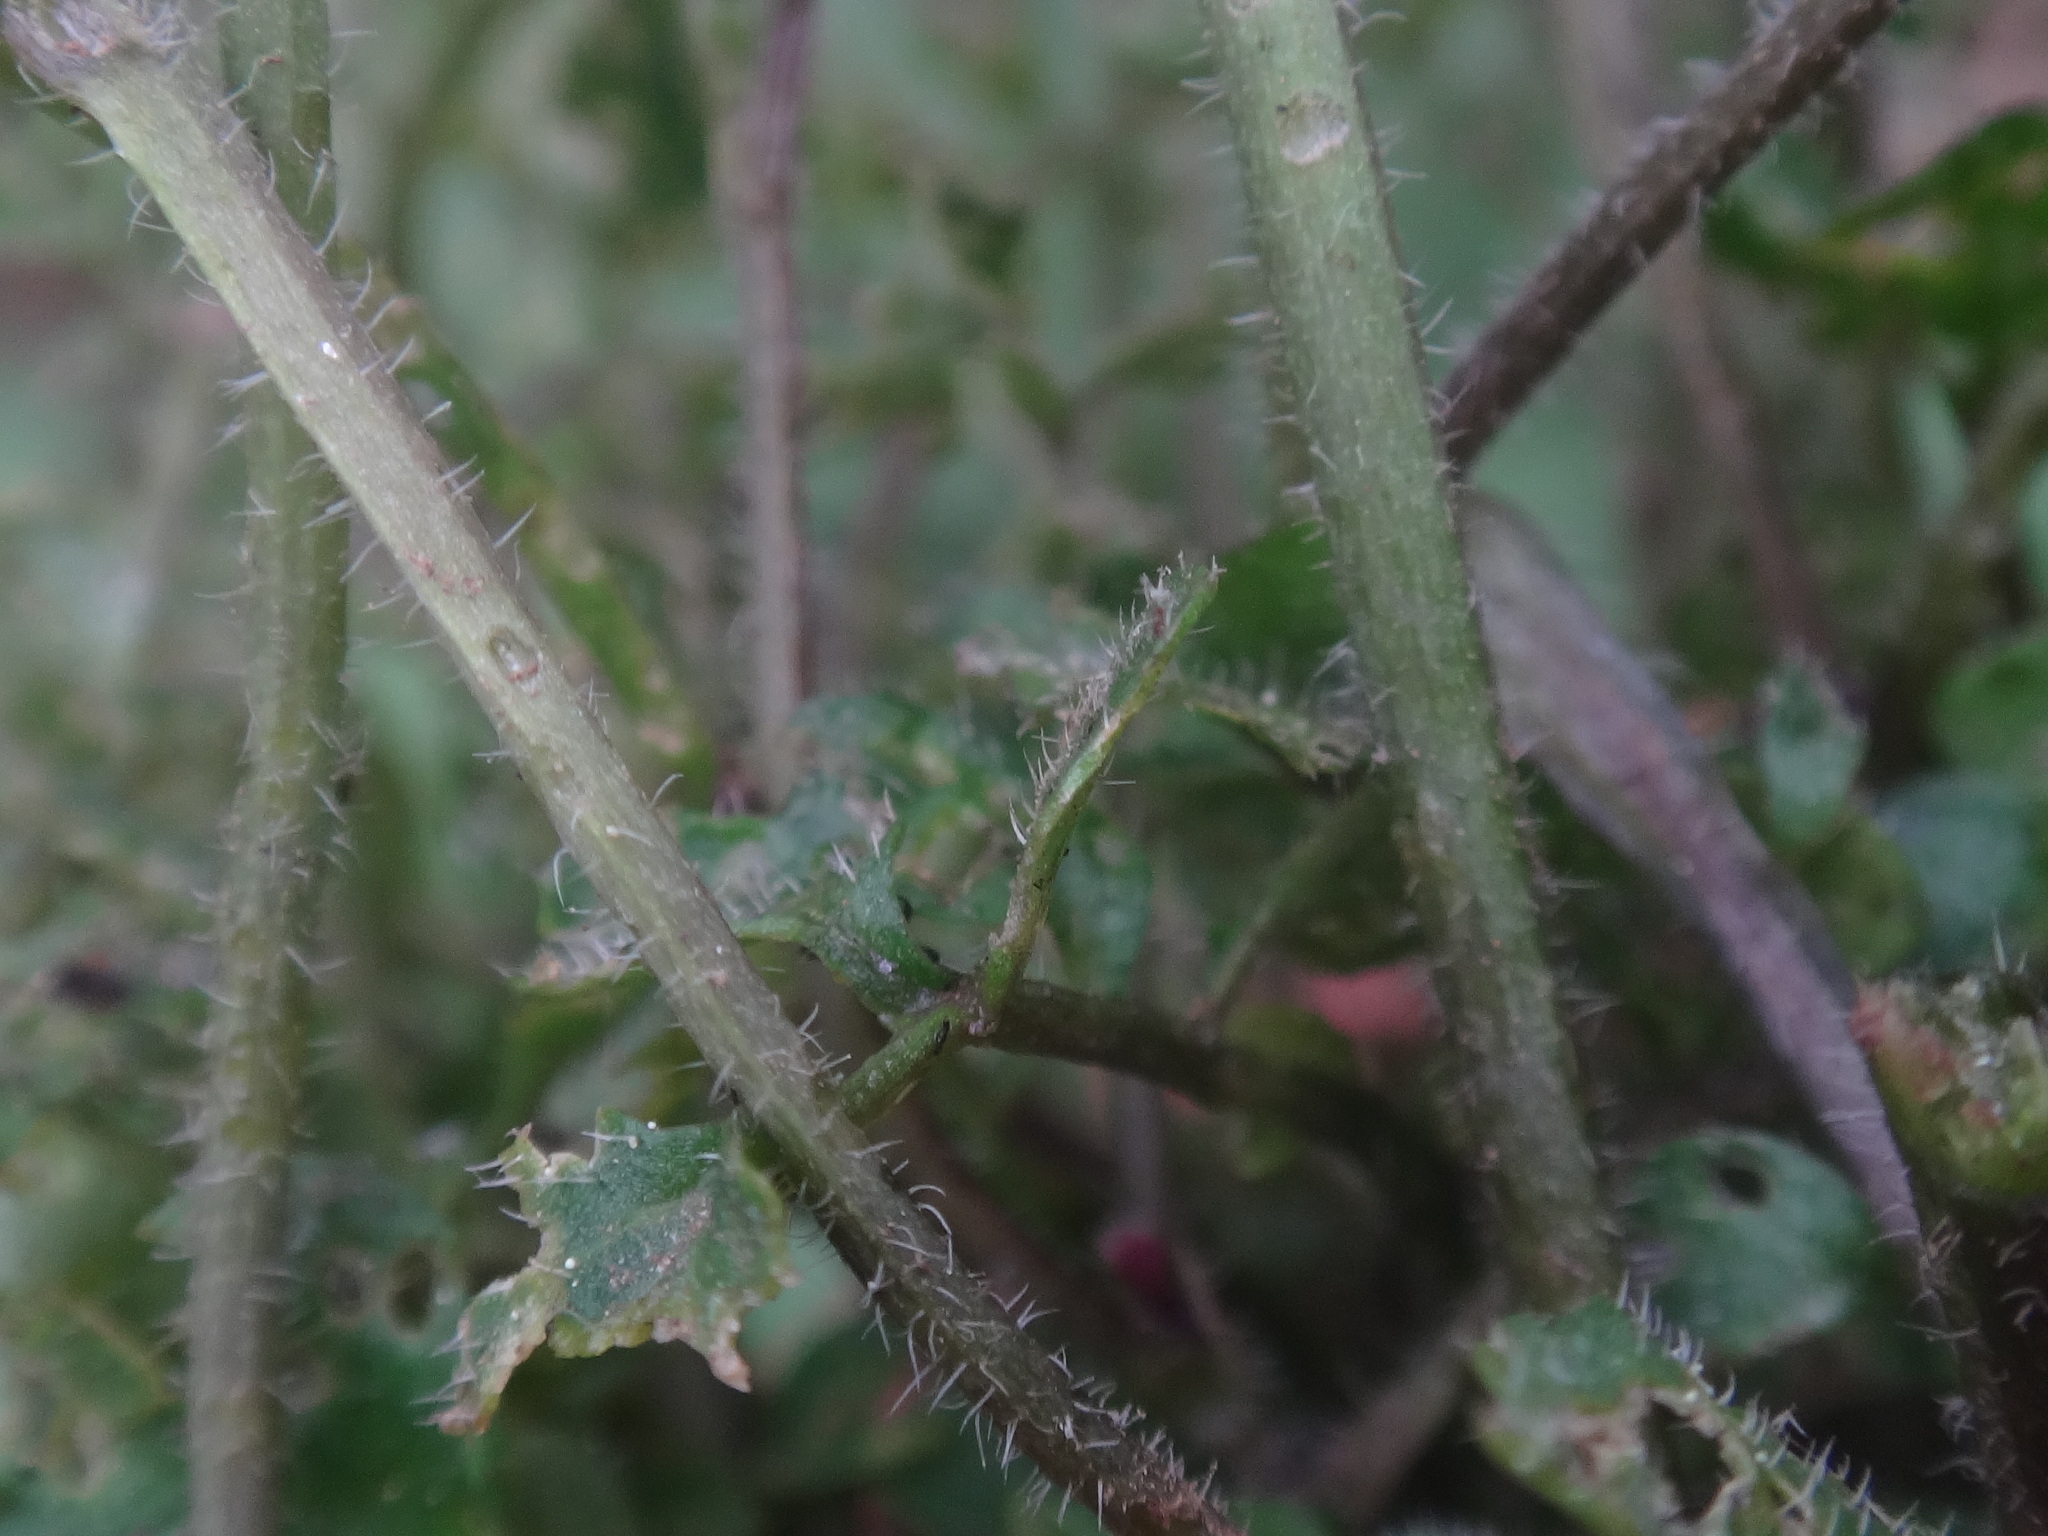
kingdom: Plantae
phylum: Tracheophyta
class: Magnoliopsida
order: Brassicales
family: Brassicaceae
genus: Cardamine
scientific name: Cardamine flexuosa
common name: Woodland bittercress
